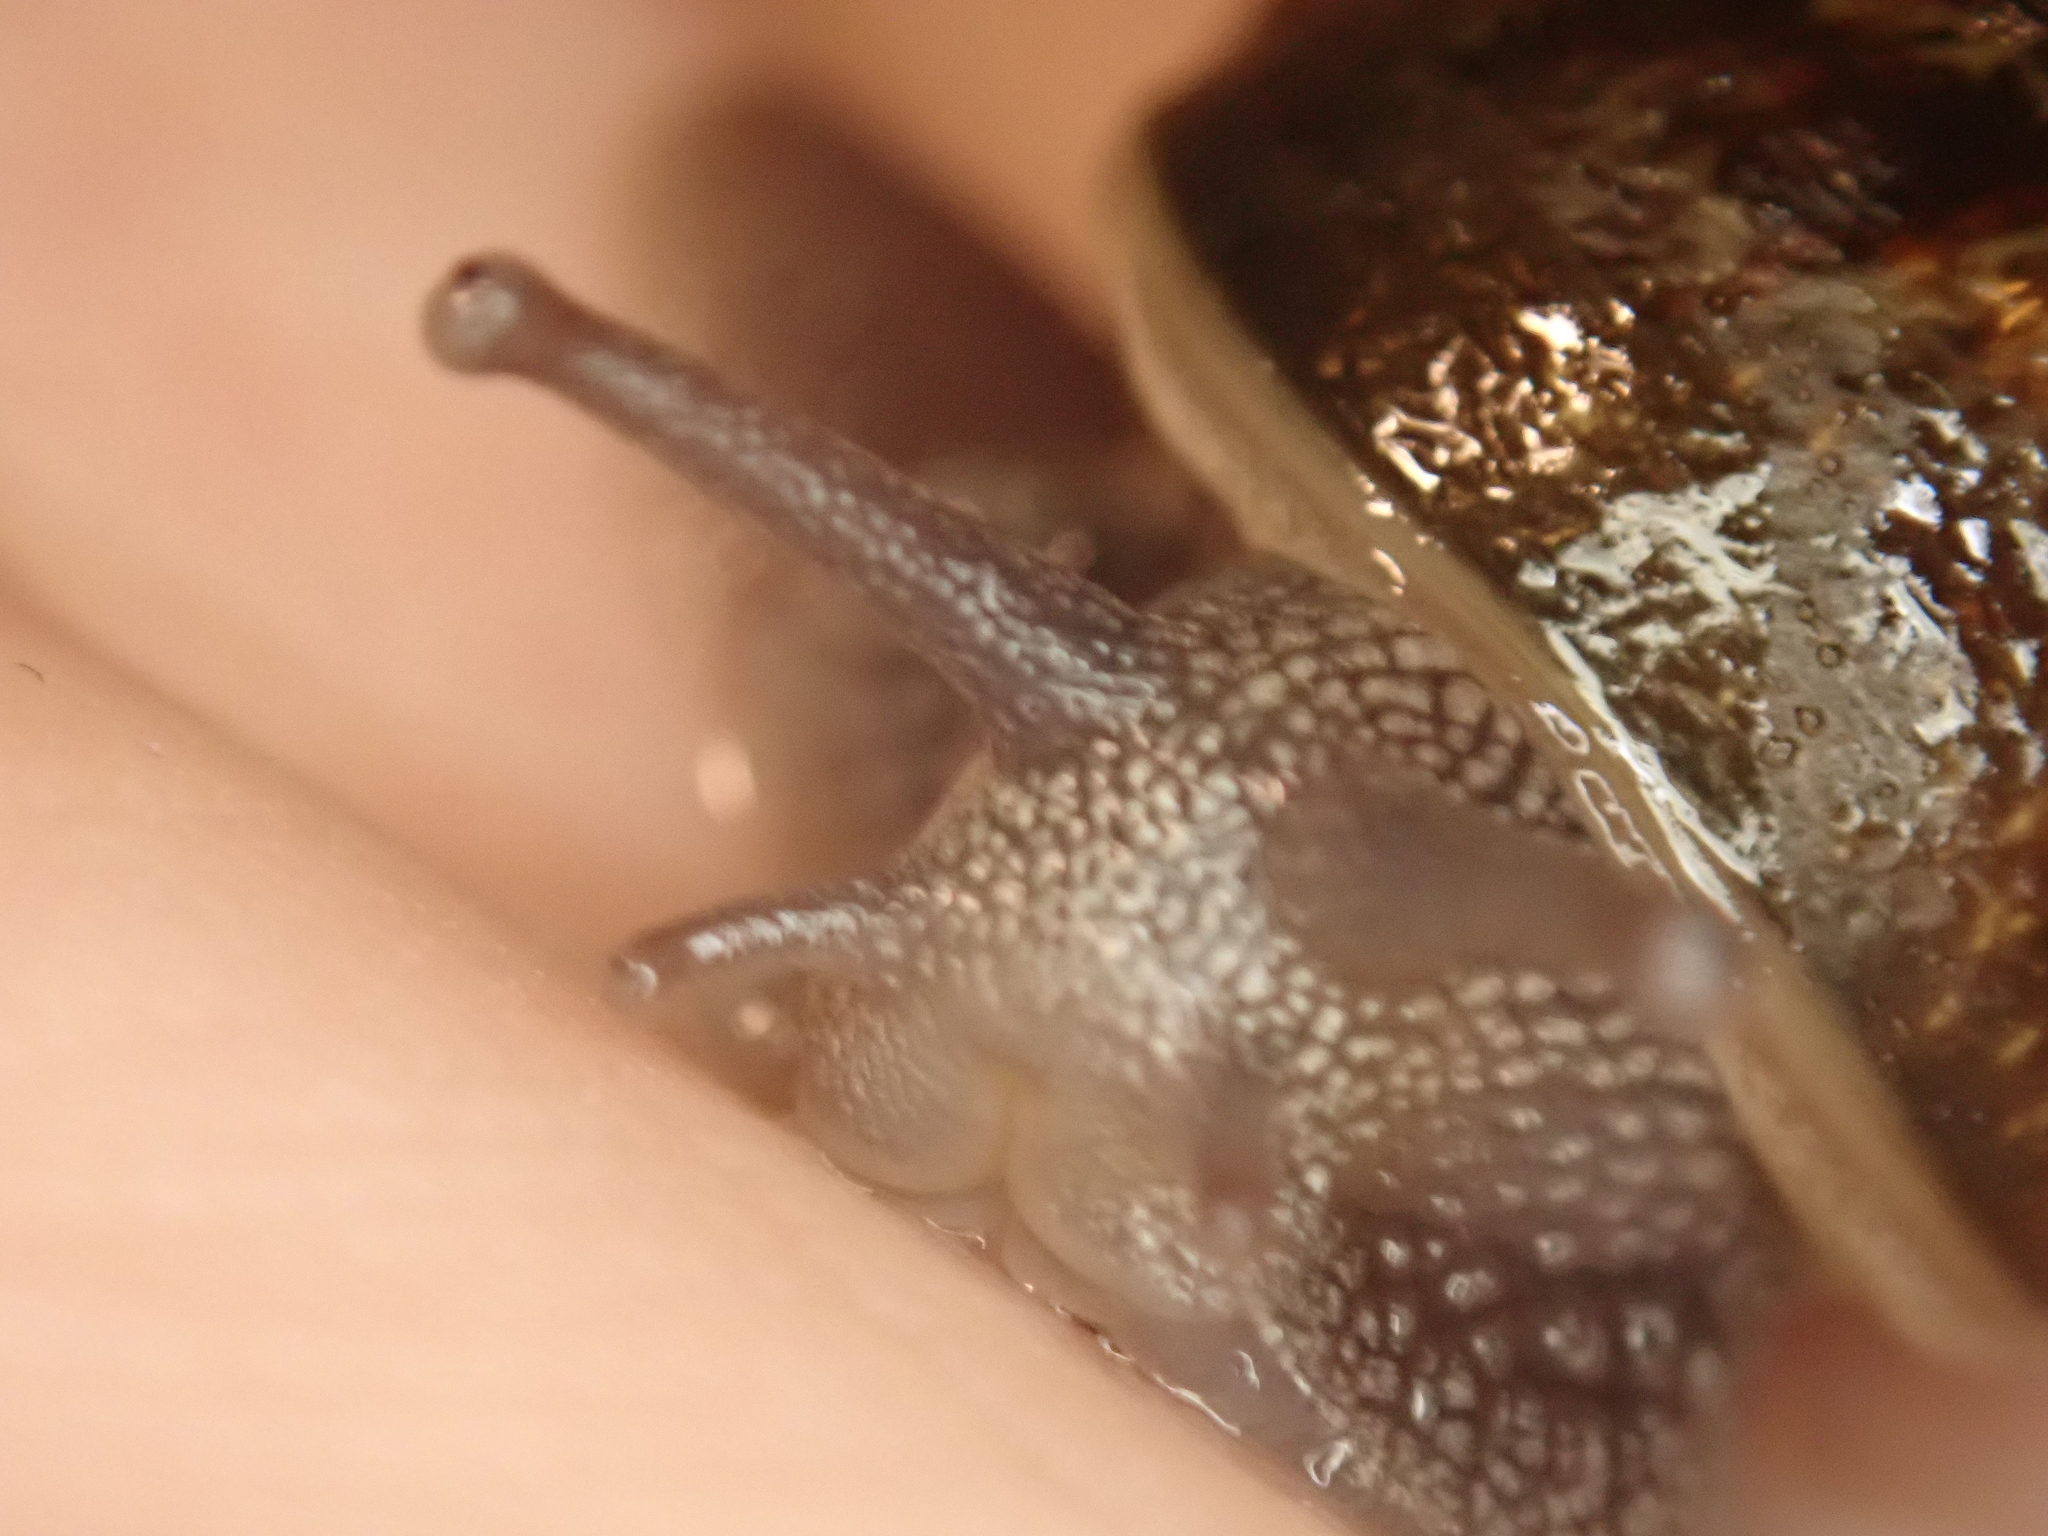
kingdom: Animalia
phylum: Mollusca
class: Gastropoda
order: Stylommatophora
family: Helicidae
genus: Cornu
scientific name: Cornu aspersum
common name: Brown garden snail
